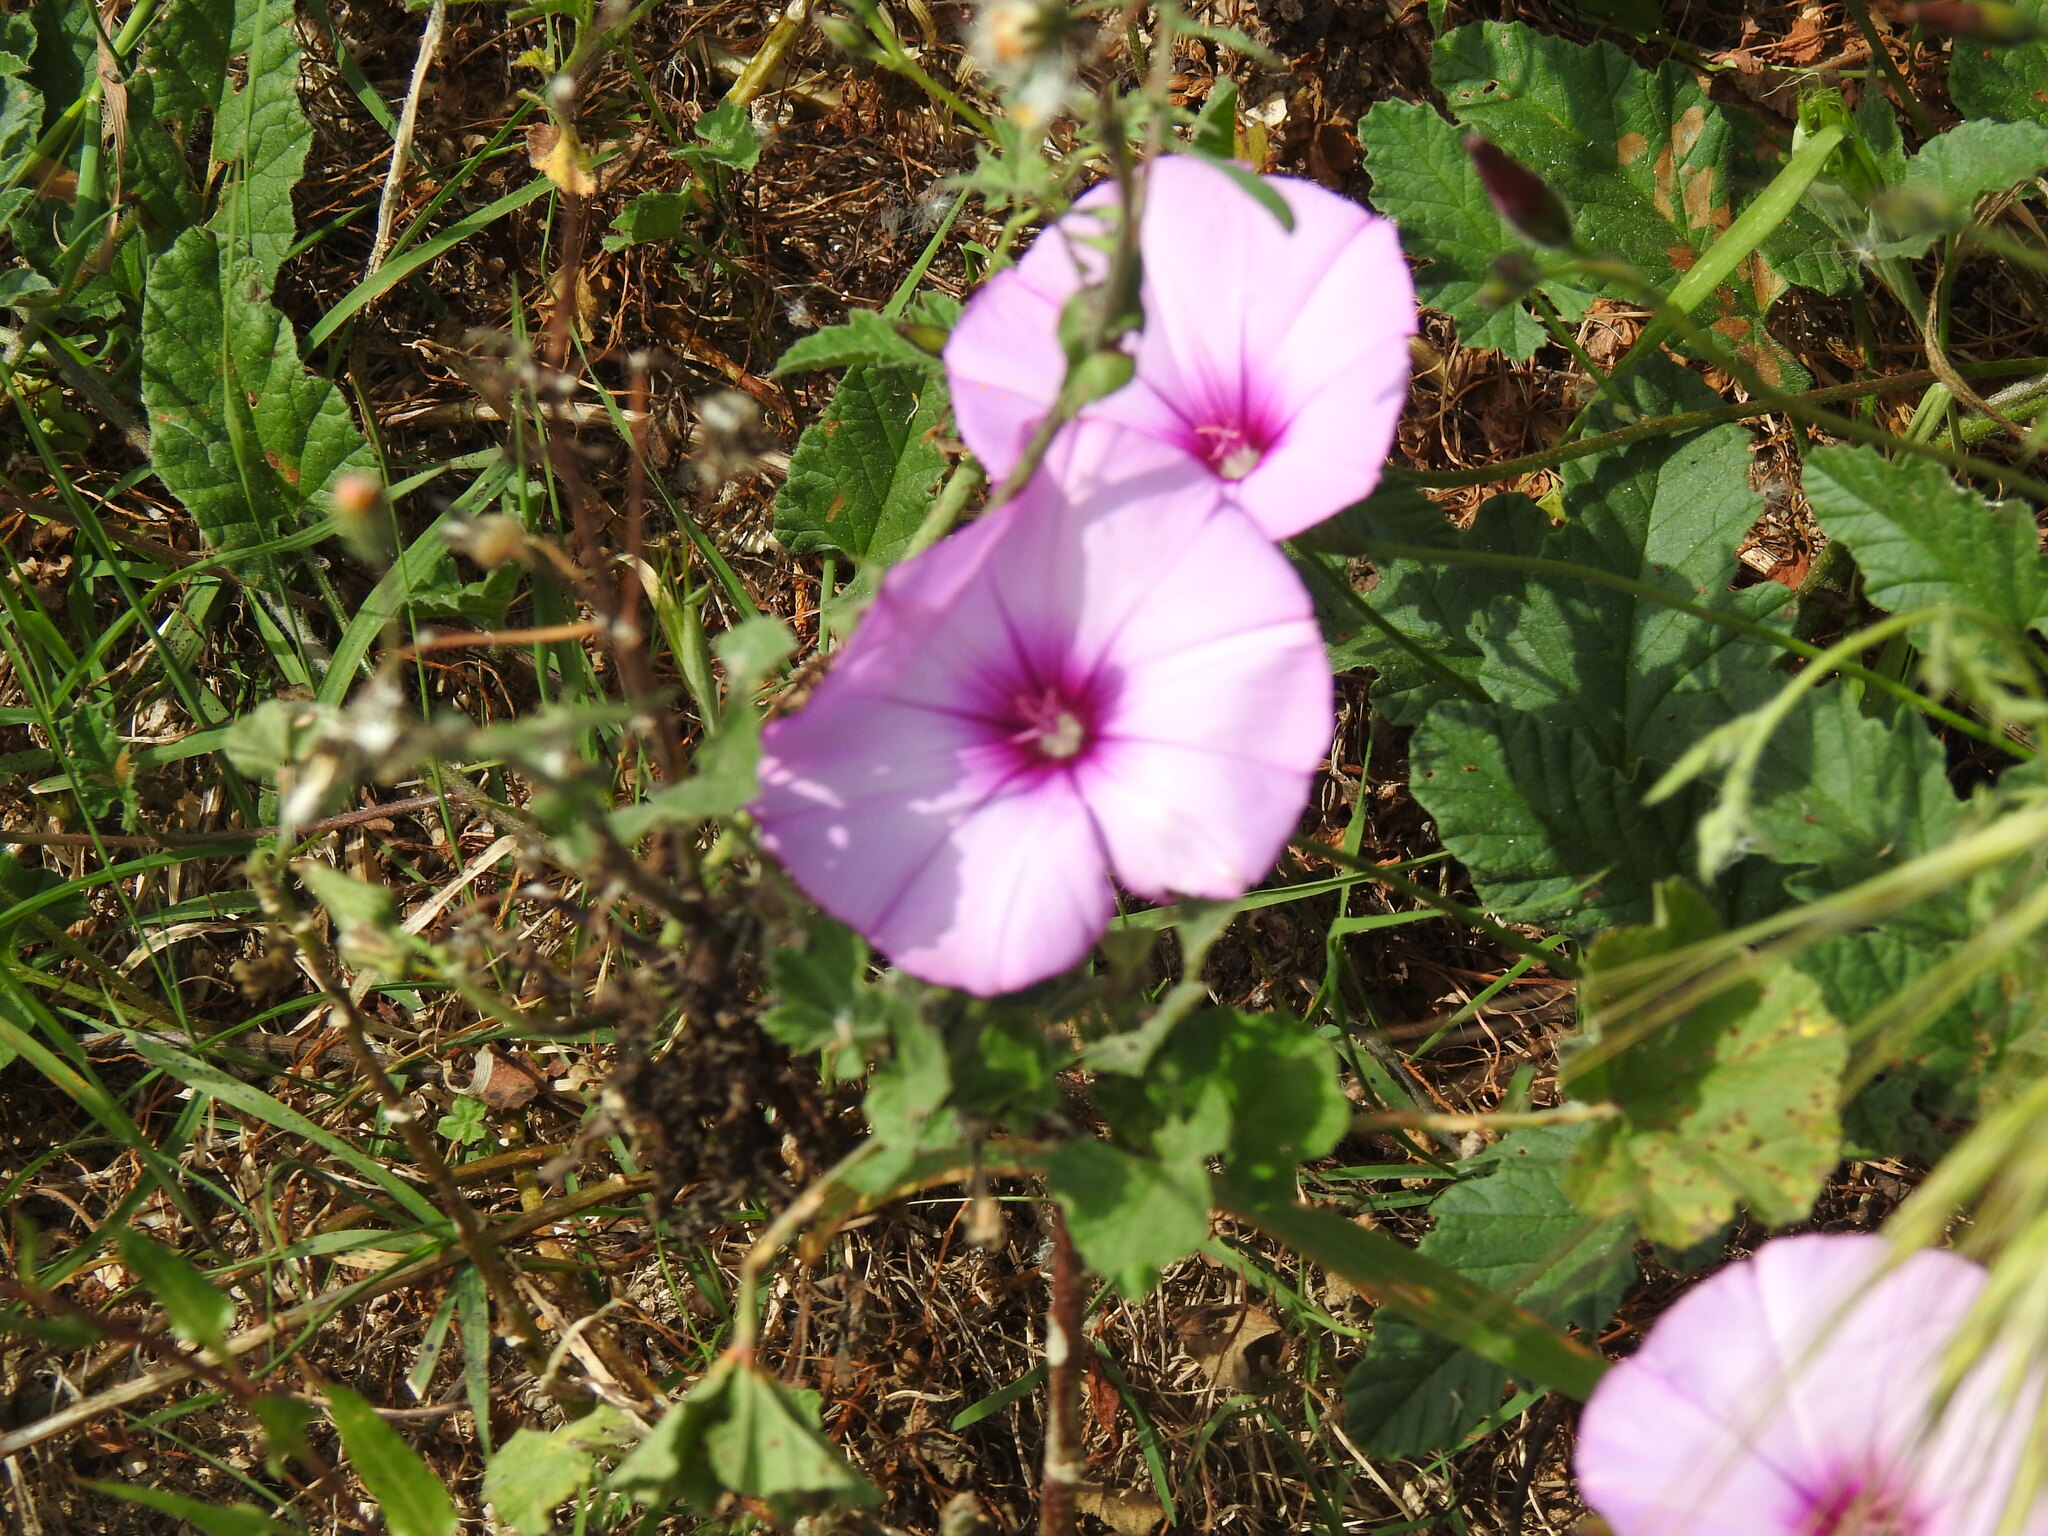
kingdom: Plantae
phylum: Tracheophyta
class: Magnoliopsida
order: Solanales
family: Convolvulaceae
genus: Convolvulus
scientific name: Convolvulus althaeoides
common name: Mallow bindweed
